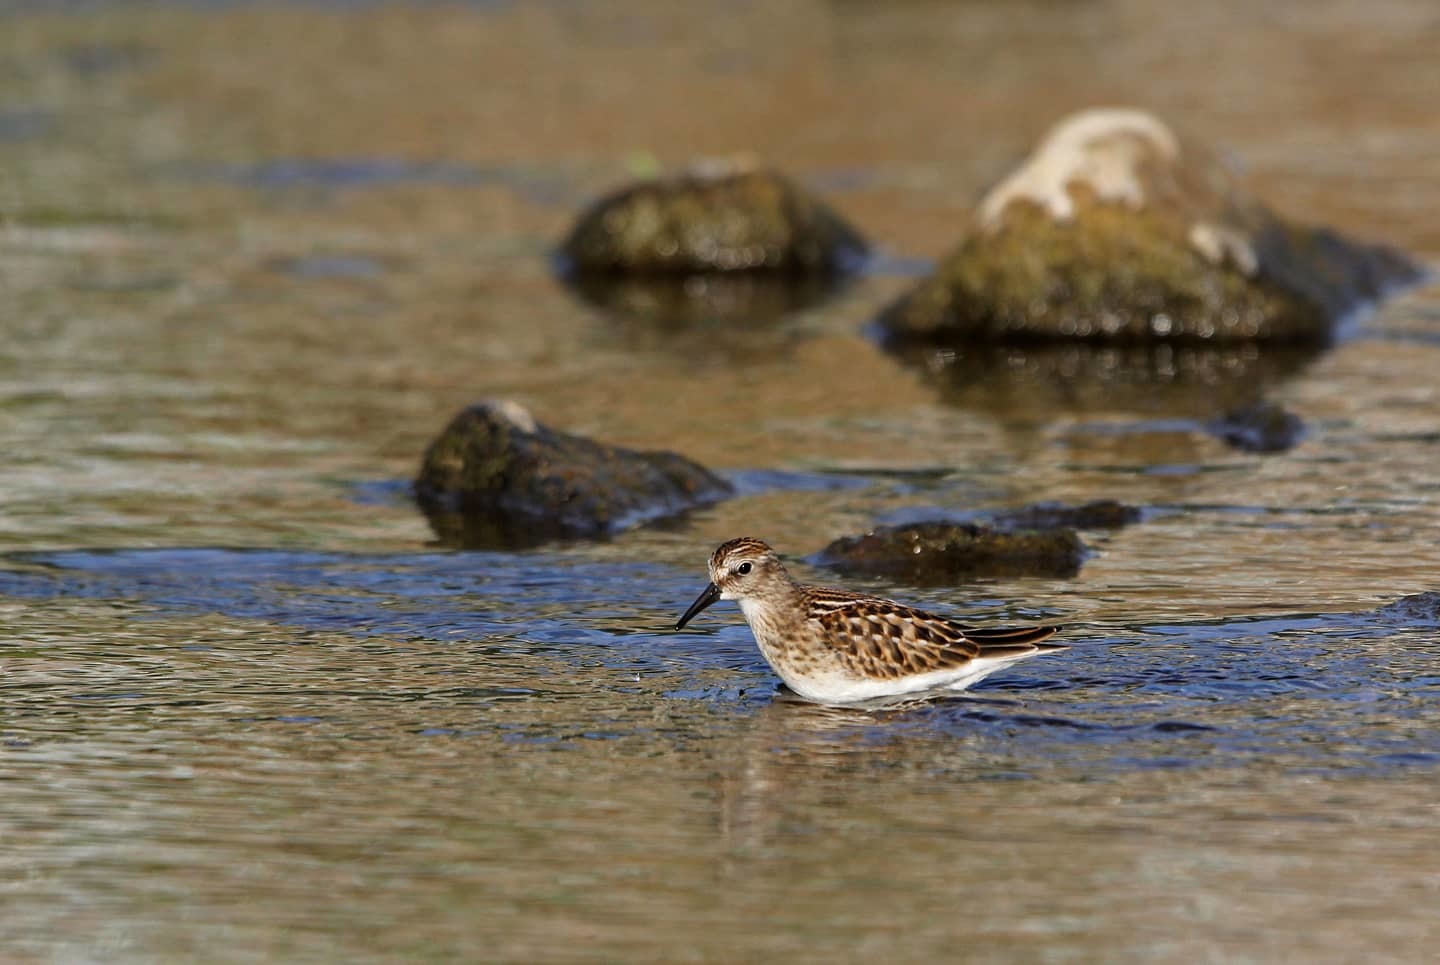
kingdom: Animalia
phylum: Chordata
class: Aves
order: Charadriiformes
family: Scolopacidae
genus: Calidris
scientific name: Calidris minutilla
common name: Least sandpiper
